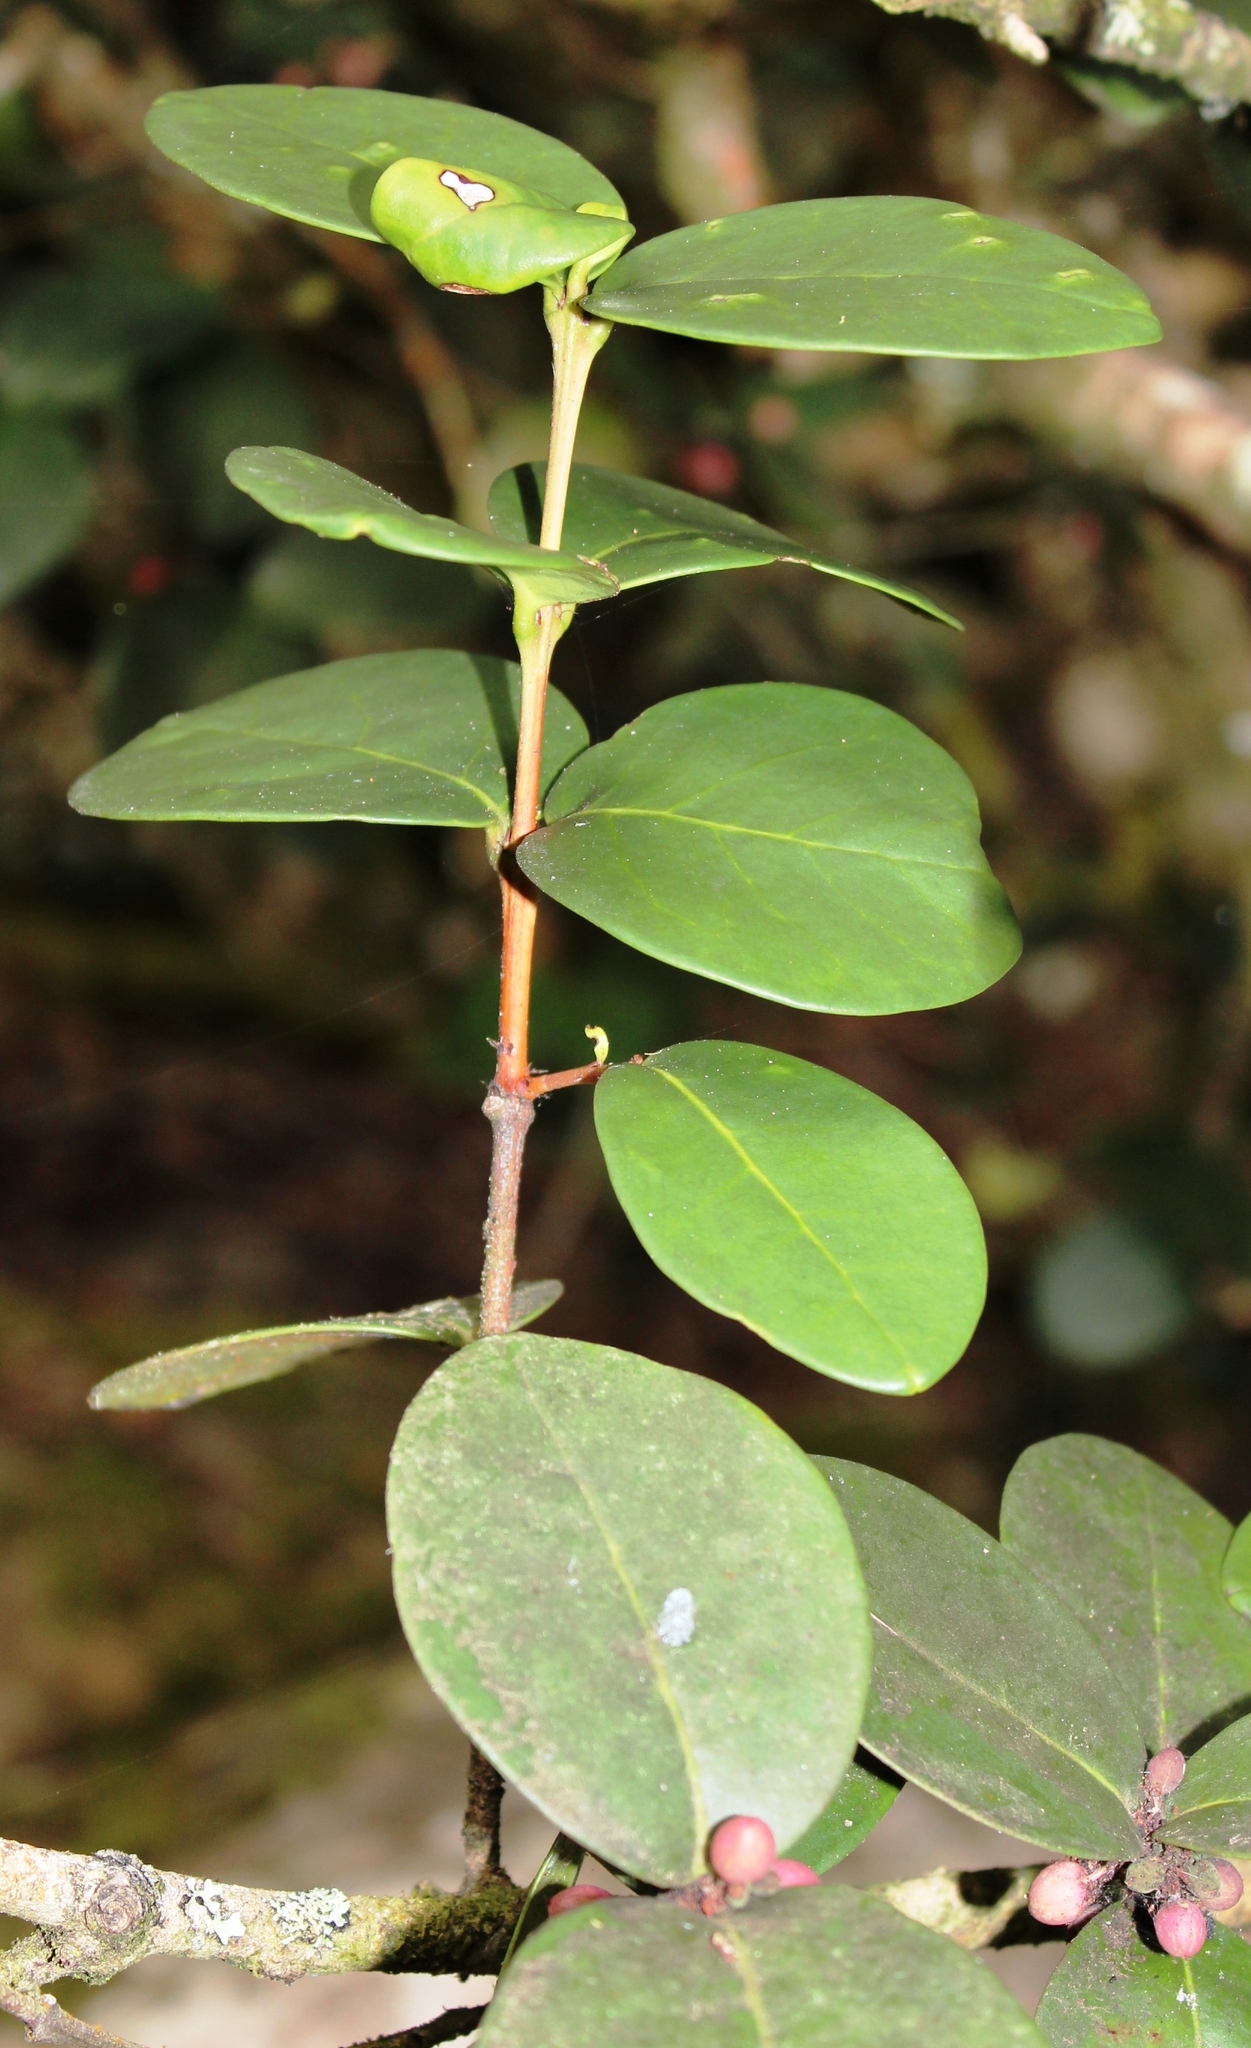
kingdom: Plantae
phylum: Tracheophyta
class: Magnoliopsida
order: Celastrales
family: Celastraceae
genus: Maurocenia
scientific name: Maurocenia frangula
